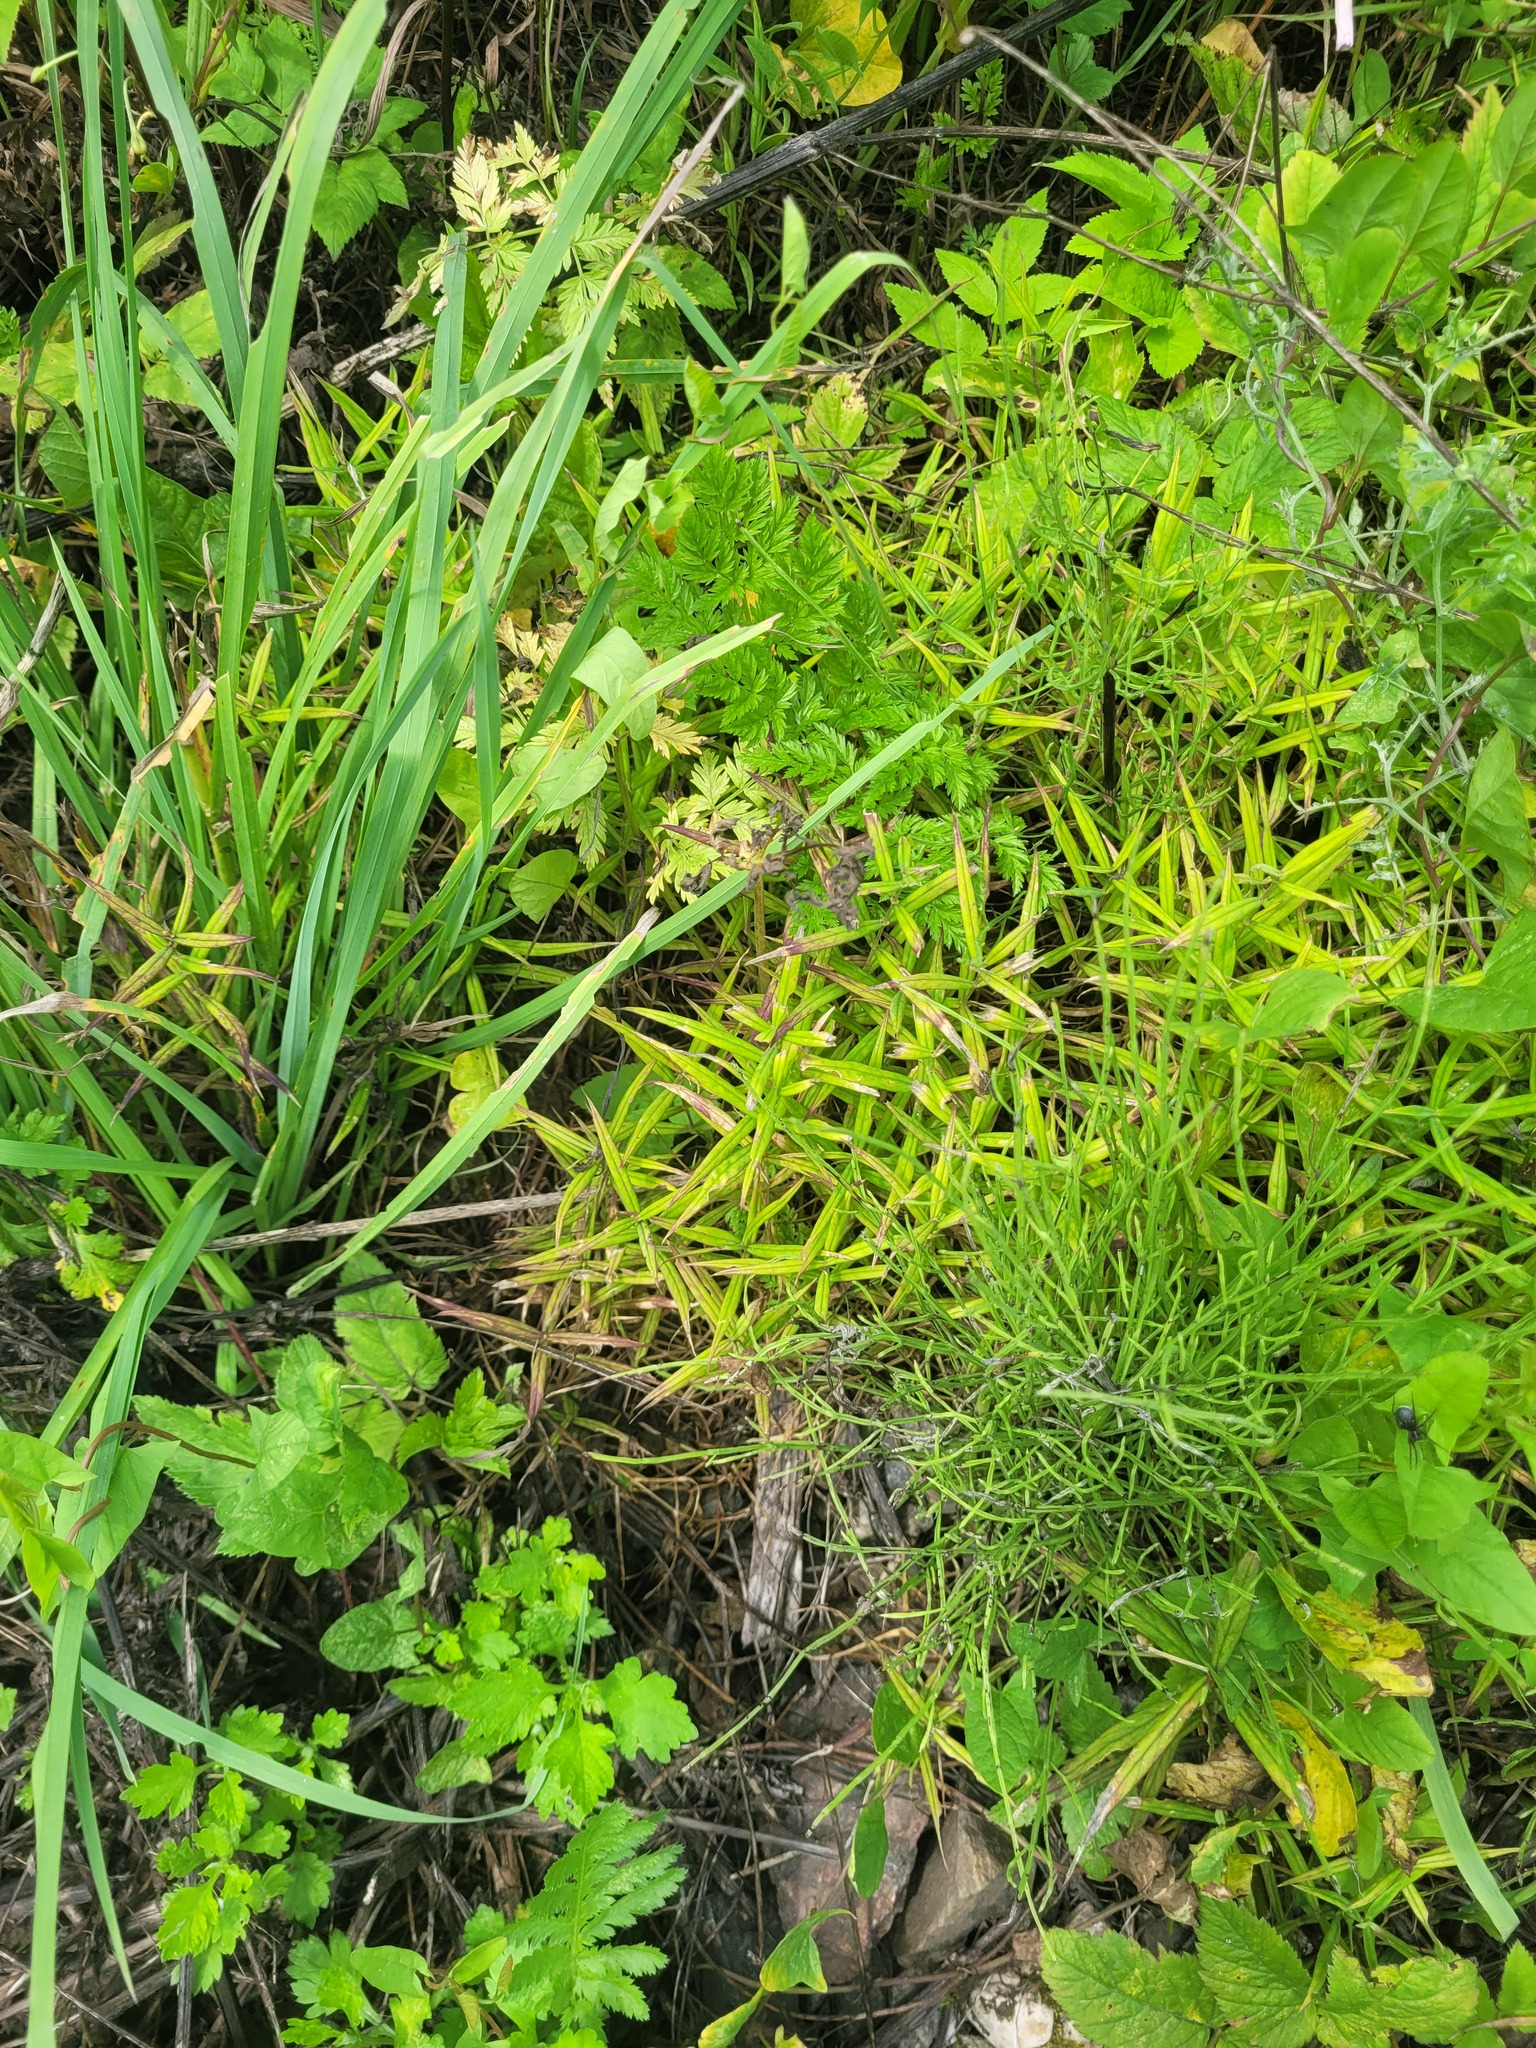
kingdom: Plantae
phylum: Tracheophyta
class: Magnoliopsida
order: Caryophyllales
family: Caryophyllaceae
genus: Rabelera
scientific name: Rabelera holostea
